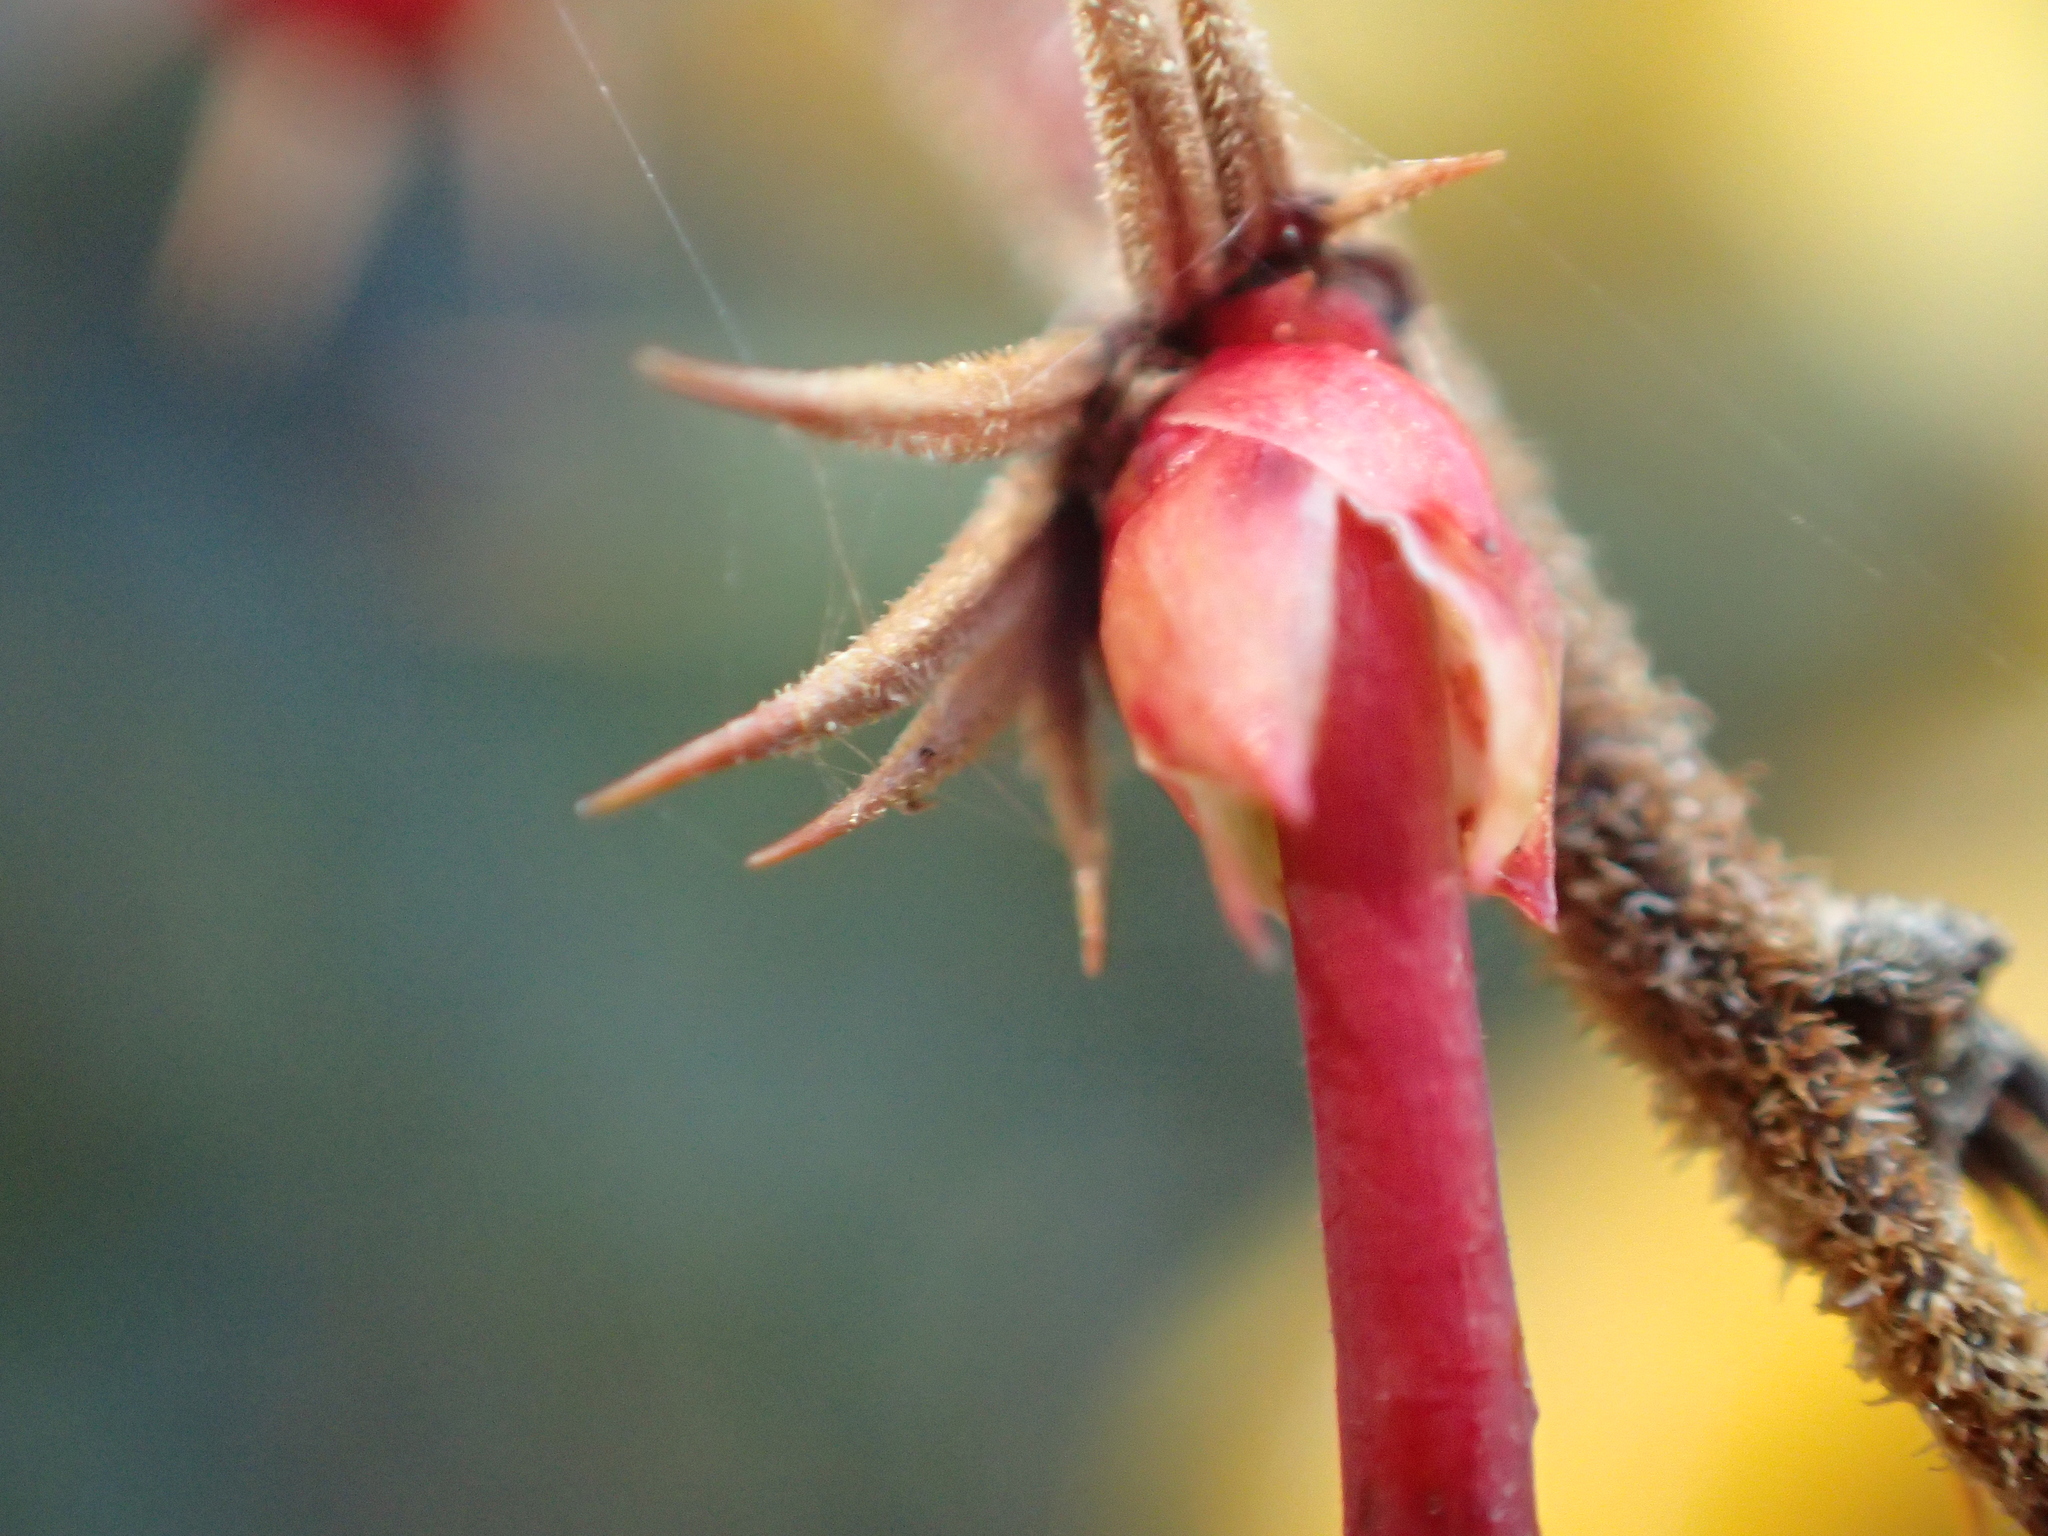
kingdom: Plantae
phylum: Tracheophyta
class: Magnoliopsida
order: Ranunculales
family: Berberidaceae
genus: Berberis
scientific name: Berberis darwinii
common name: Darwin's barberry
